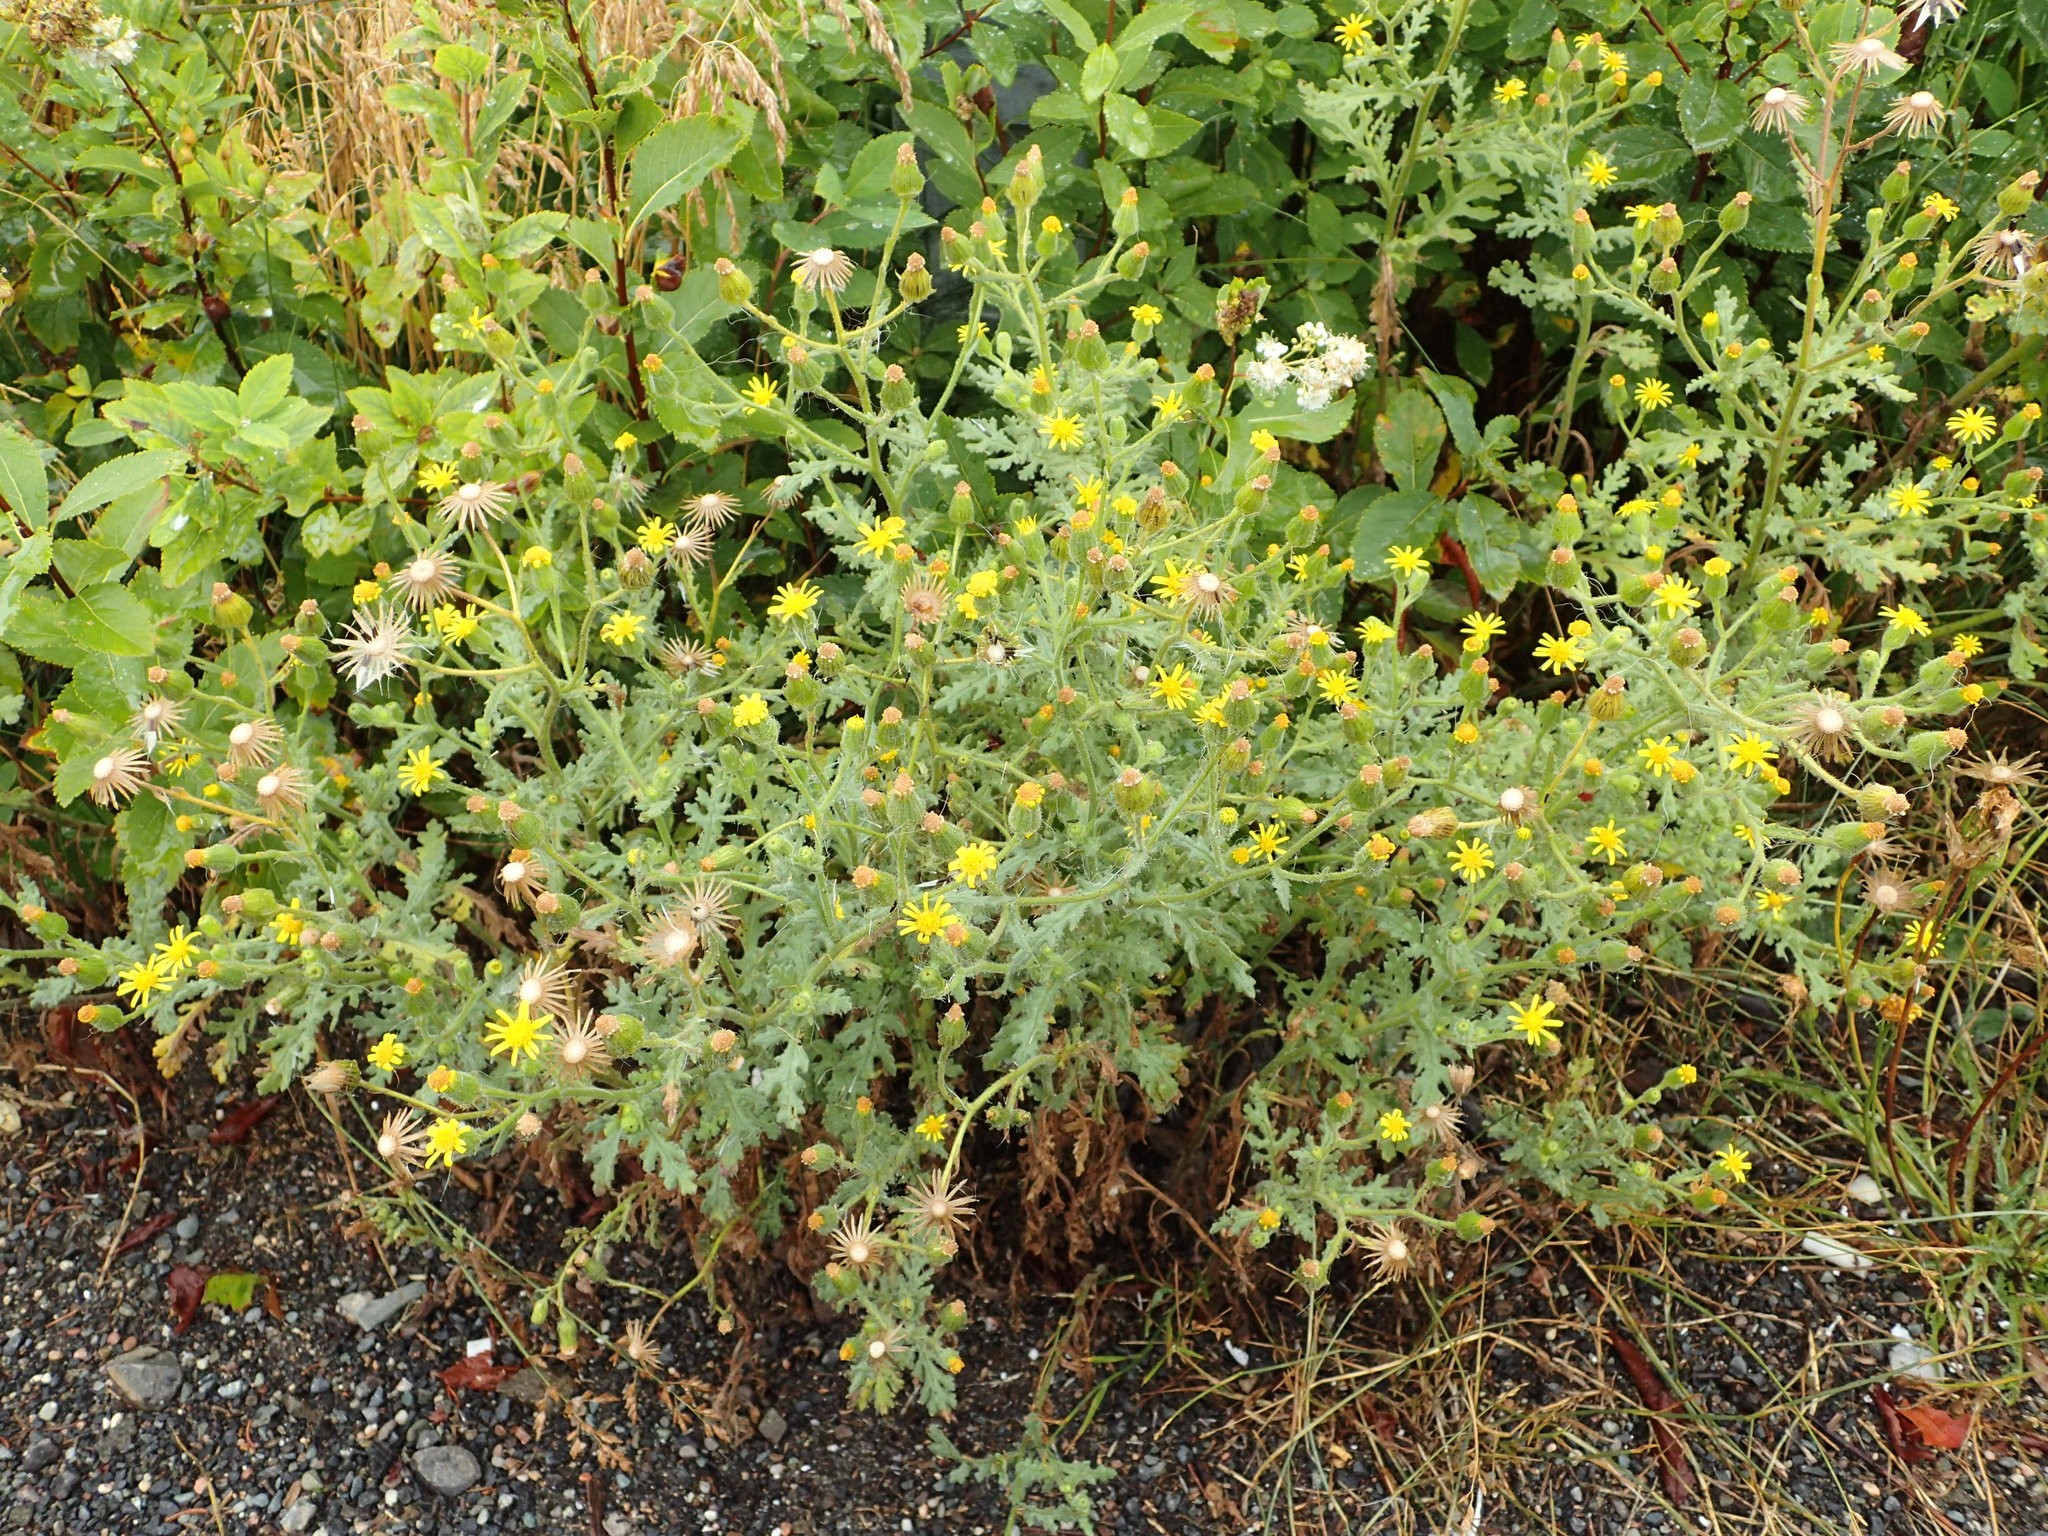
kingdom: Plantae
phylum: Tracheophyta
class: Magnoliopsida
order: Asterales
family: Asteraceae
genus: Senecio
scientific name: Senecio viscosus
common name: Sticky groundsel
